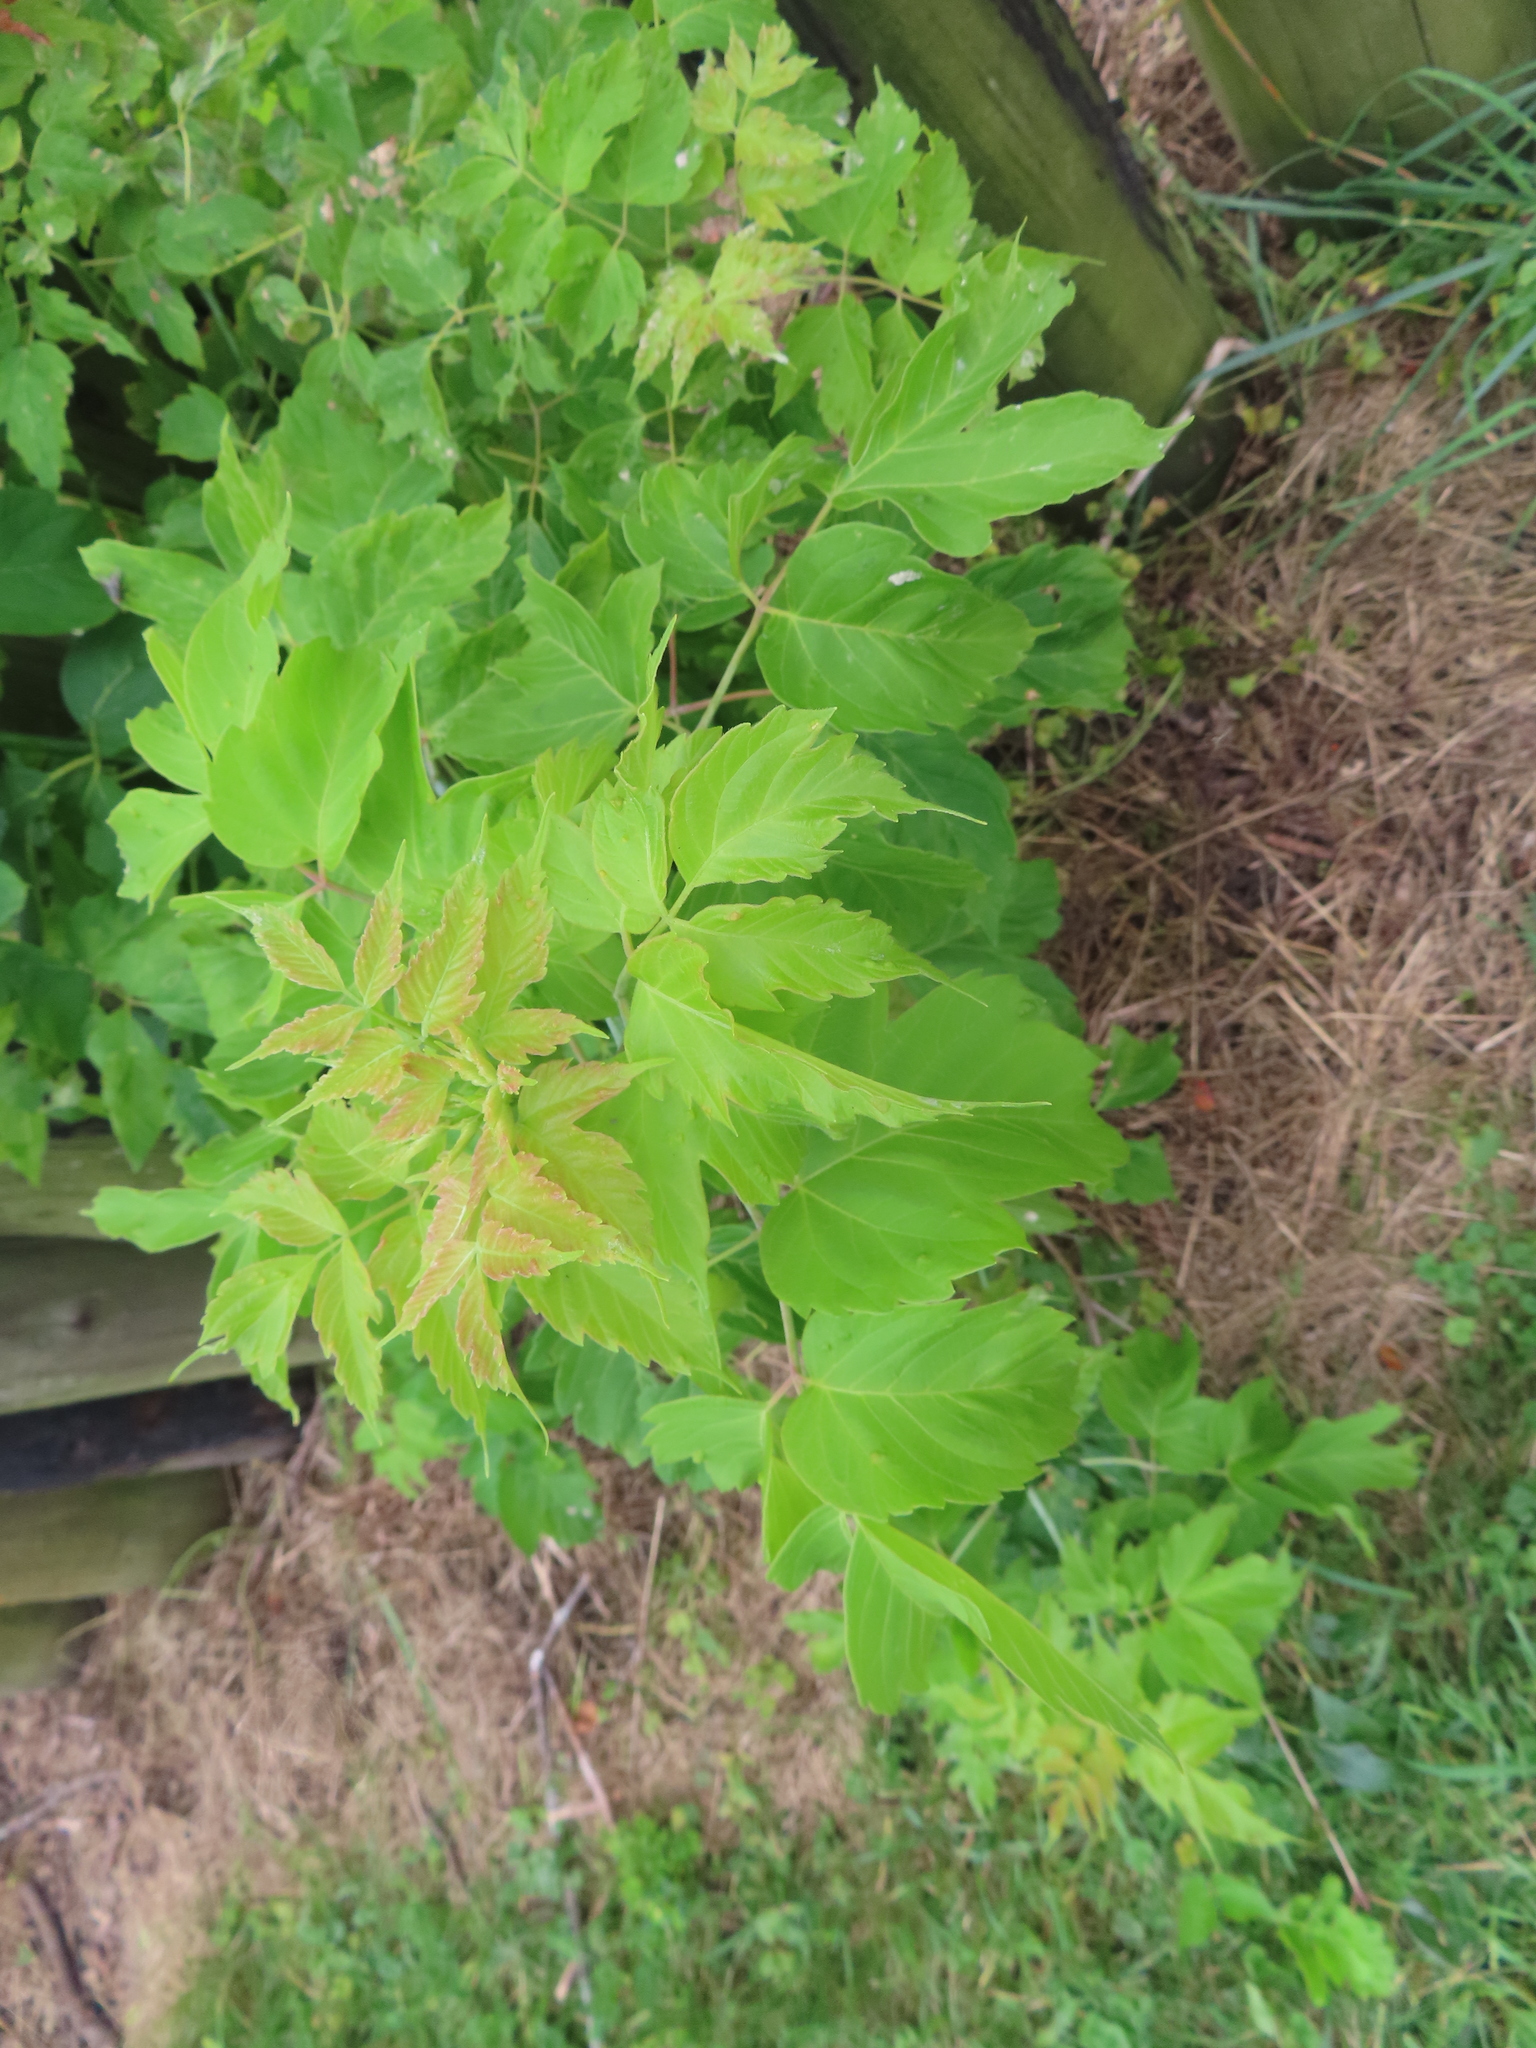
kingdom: Plantae
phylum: Tracheophyta
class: Magnoliopsida
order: Sapindales
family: Sapindaceae
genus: Acer
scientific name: Acer negundo
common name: Ashleaf maple
